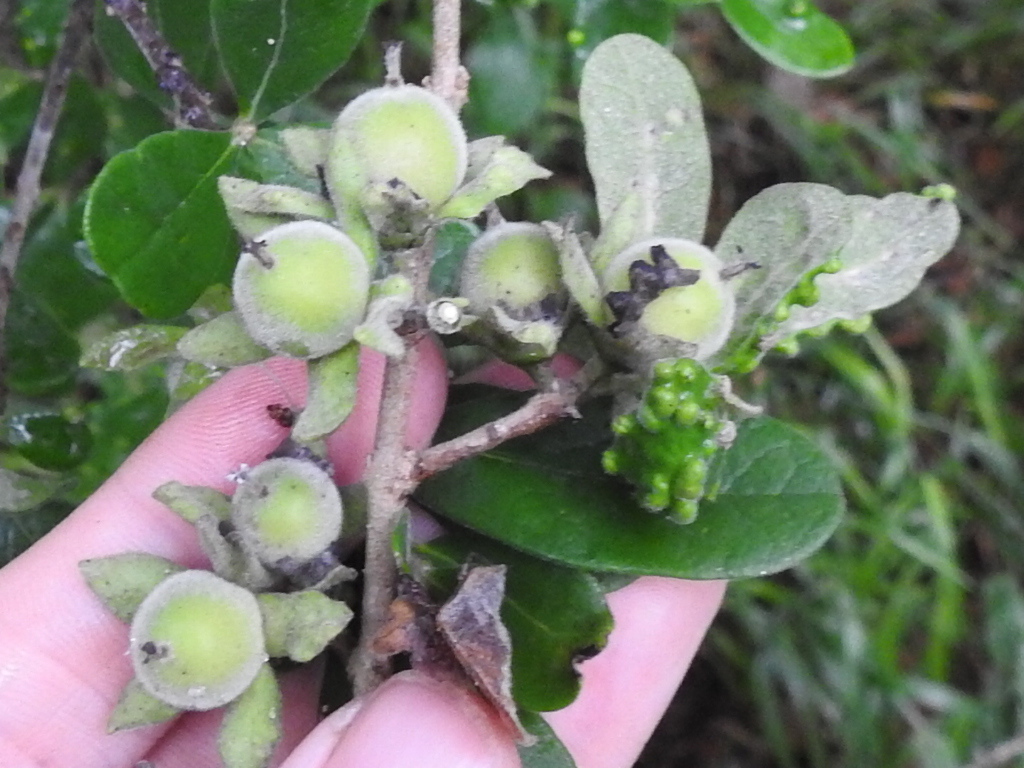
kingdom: Plantae
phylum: Tracheophyta
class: Magnoliopsida
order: Ericales
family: Ebenaceae
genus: Diospyros
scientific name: Diospyros texana
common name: Texas persimmon
